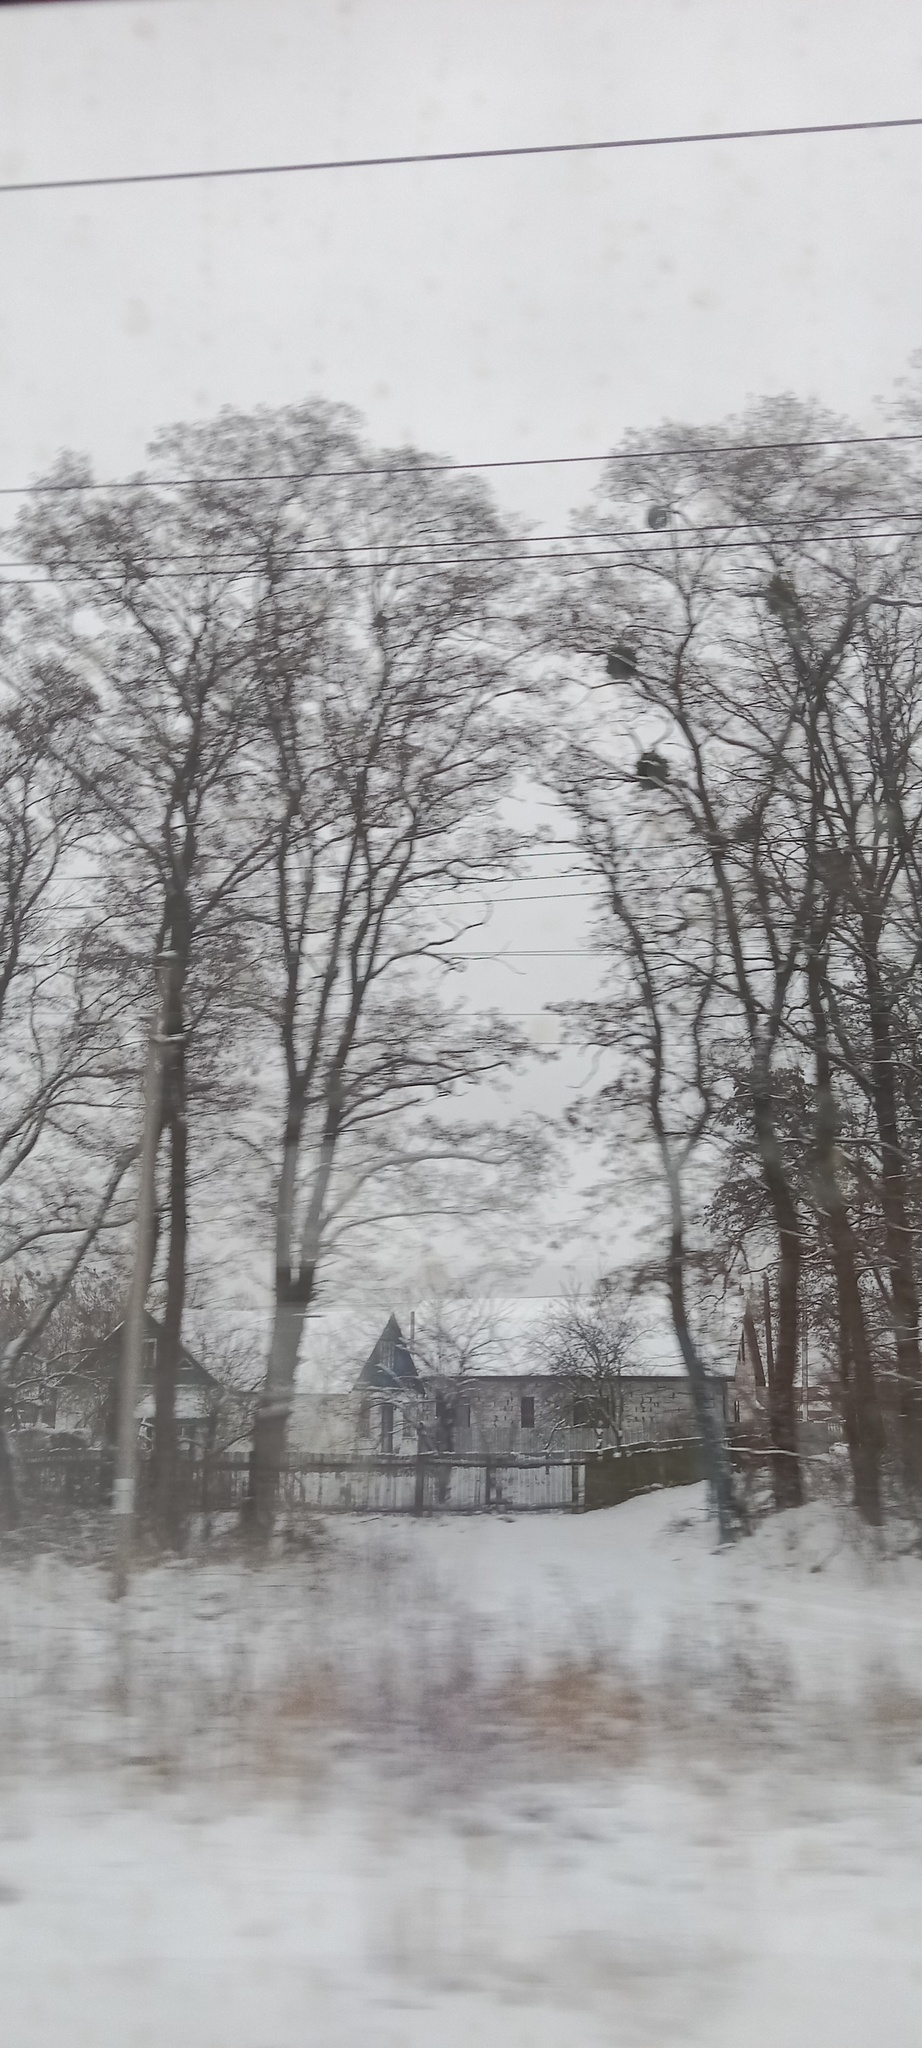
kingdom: Plantae
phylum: Tracheophyta
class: Magnoliopsida
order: Santalales
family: Viscaceae
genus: Viscum
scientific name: Viscum album
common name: Mistletoe
